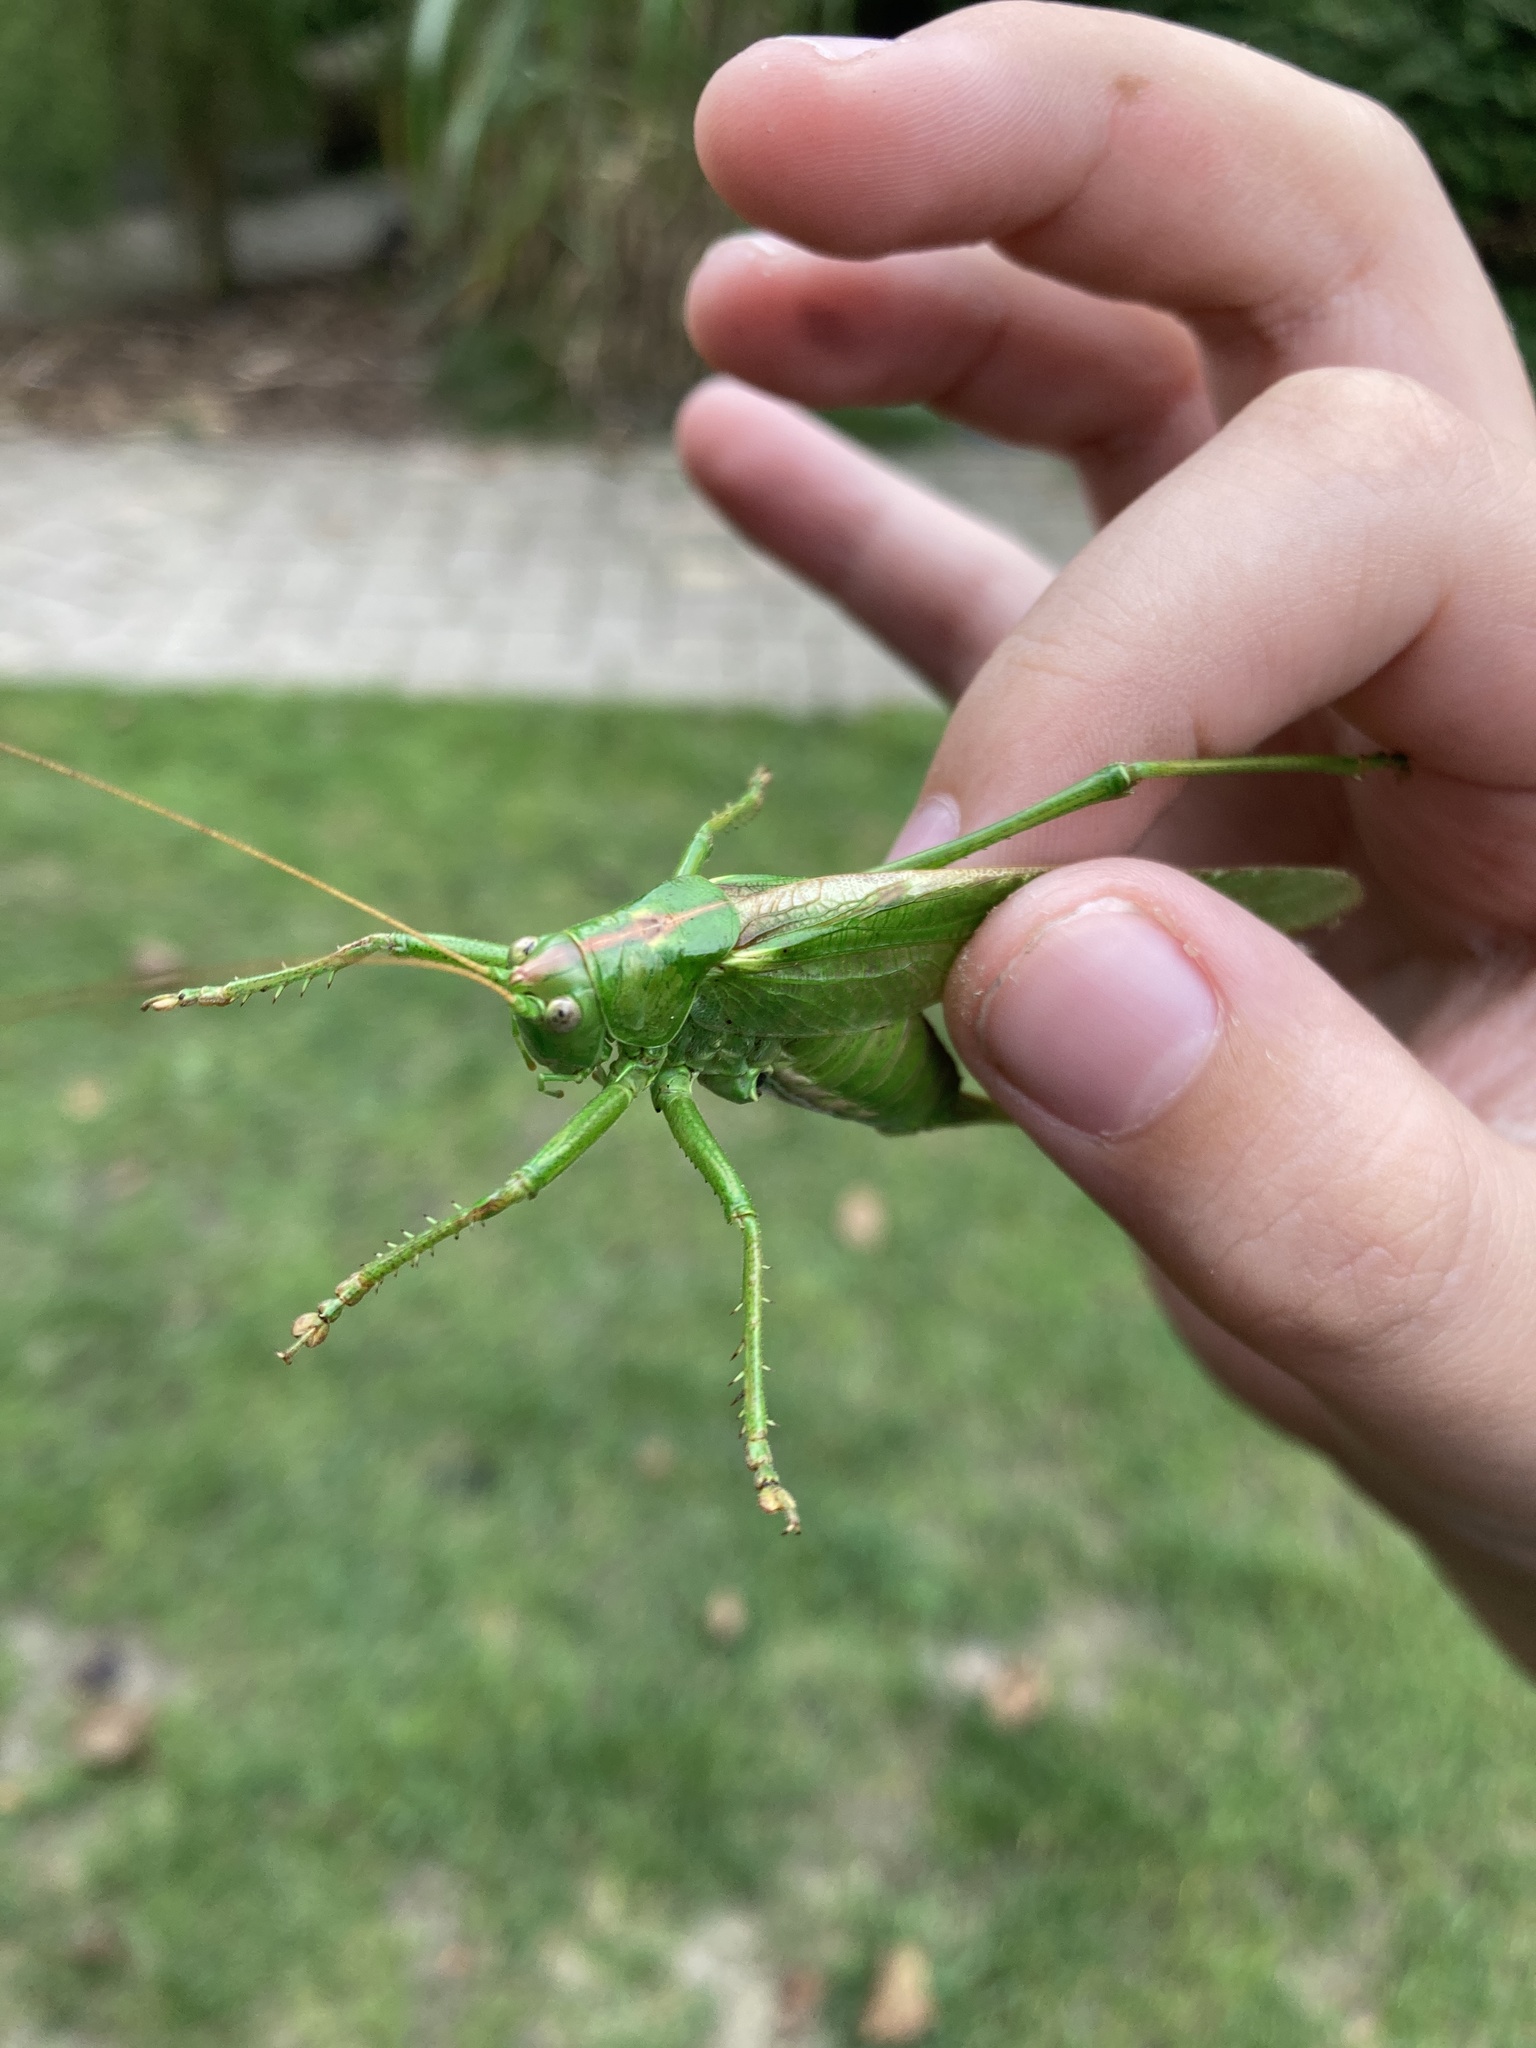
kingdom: Animalia
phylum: Arthropoda
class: Insecta
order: Orthoptera
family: Tettigoniidae
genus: Tettigonia
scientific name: Tettigonia viridissima
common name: Great green bush-cricket
